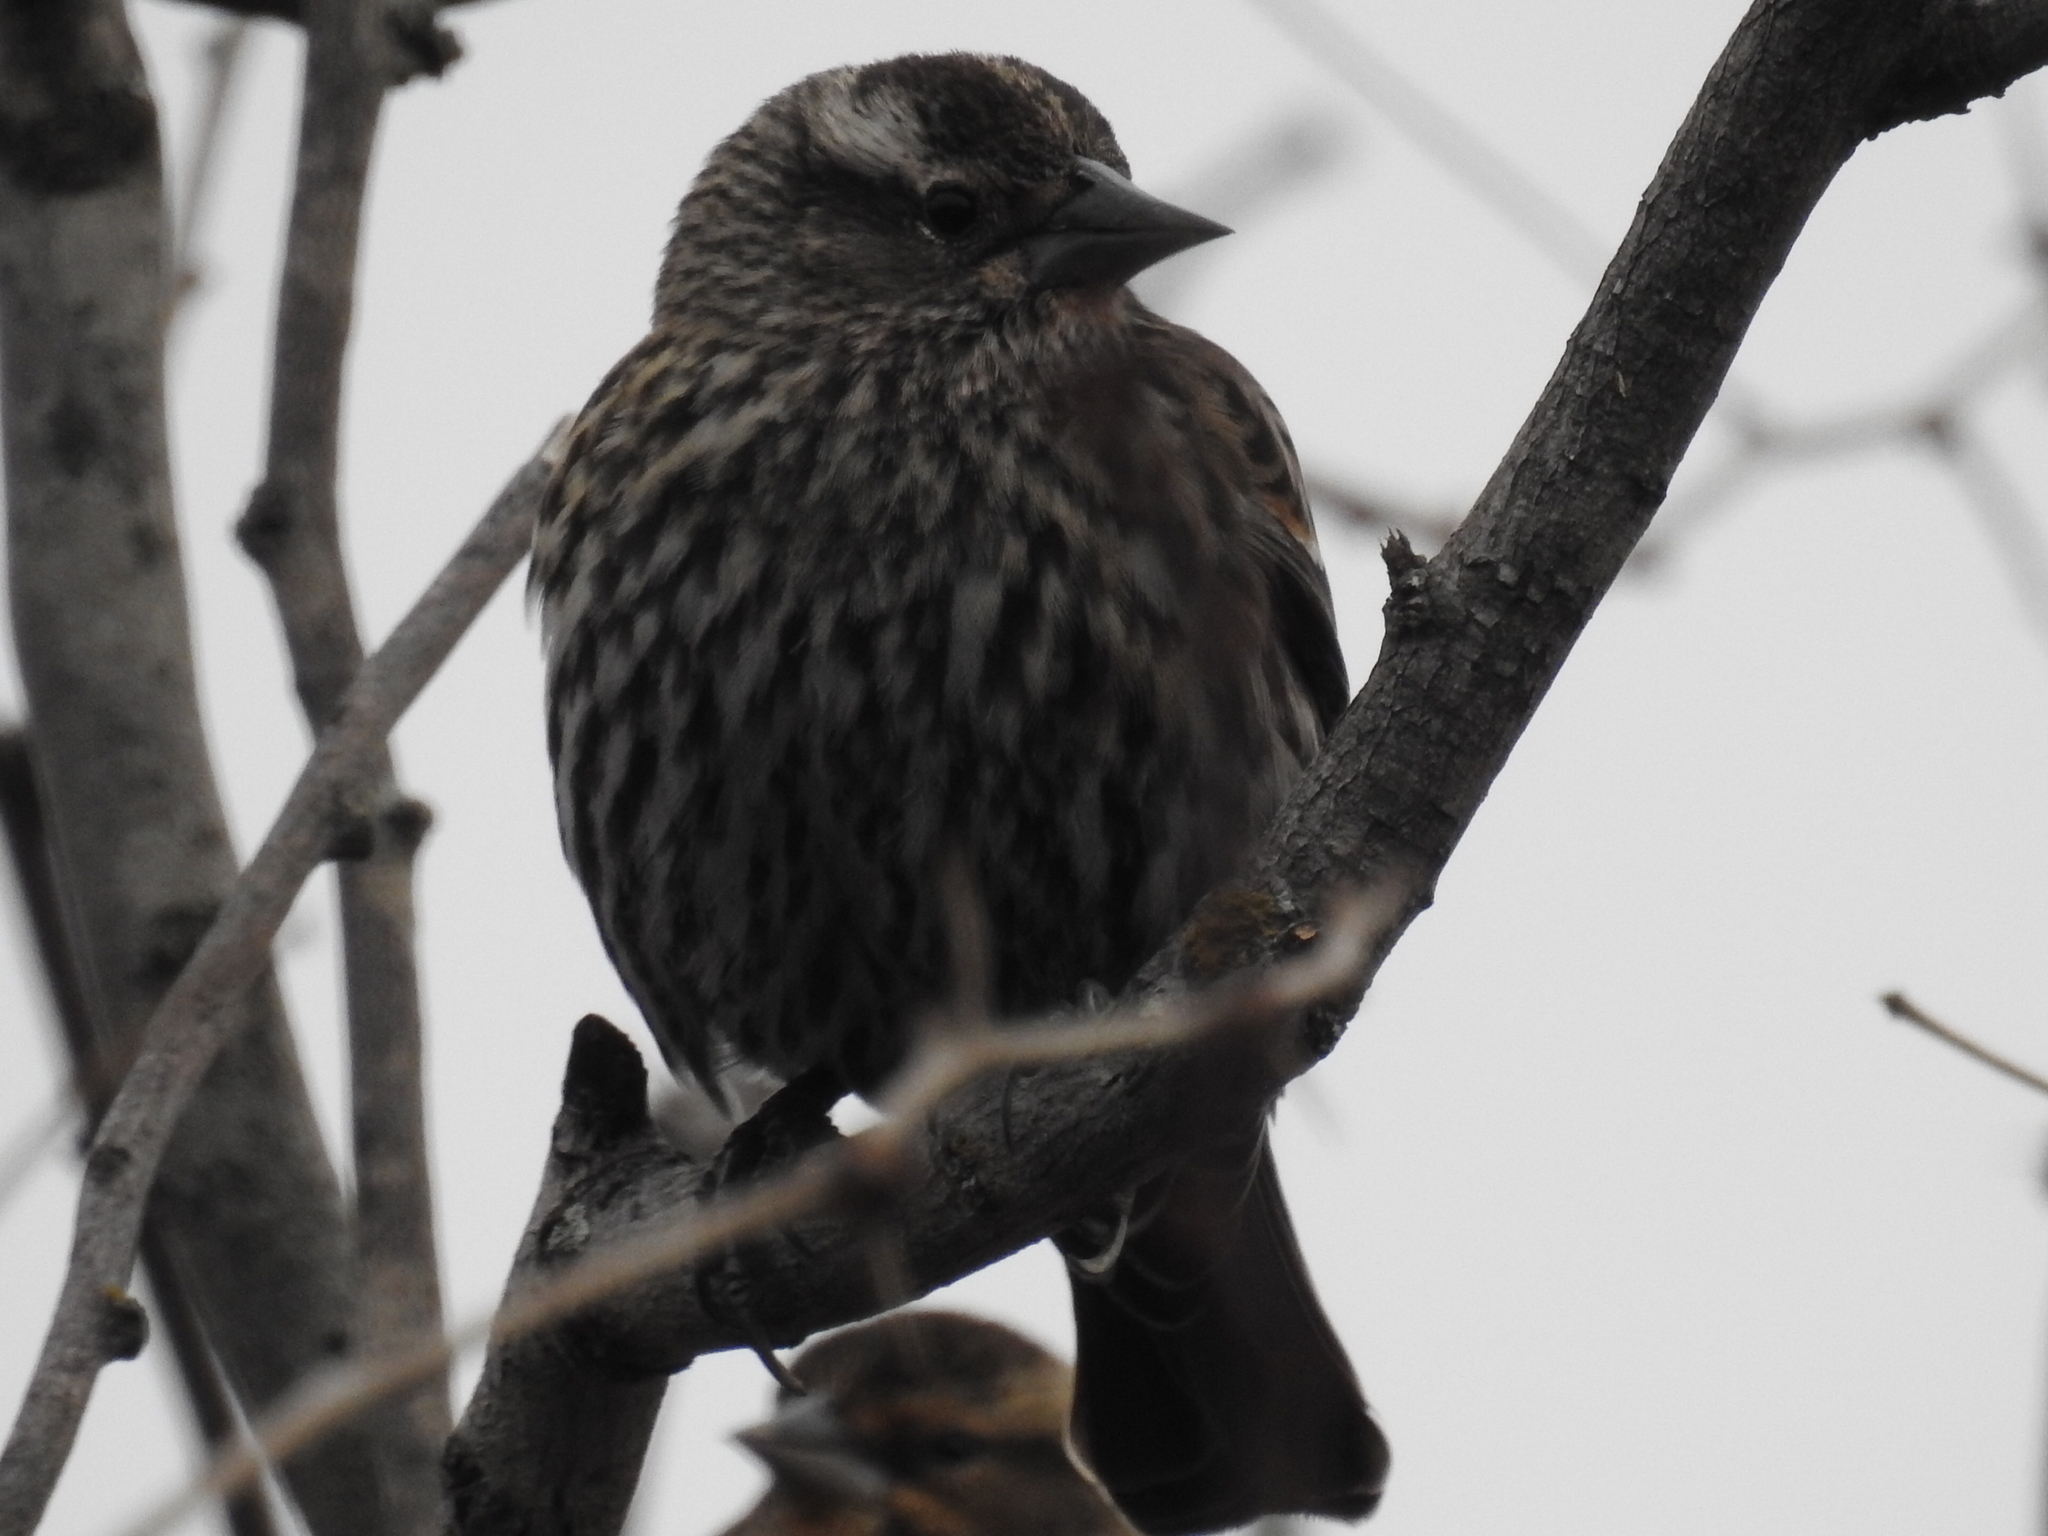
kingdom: Animalia
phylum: Chordata
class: Aves
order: Passeriformes
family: Icteridae
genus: Agelaius
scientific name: Agelaius phoeniceus
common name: Red-winged blackbird
